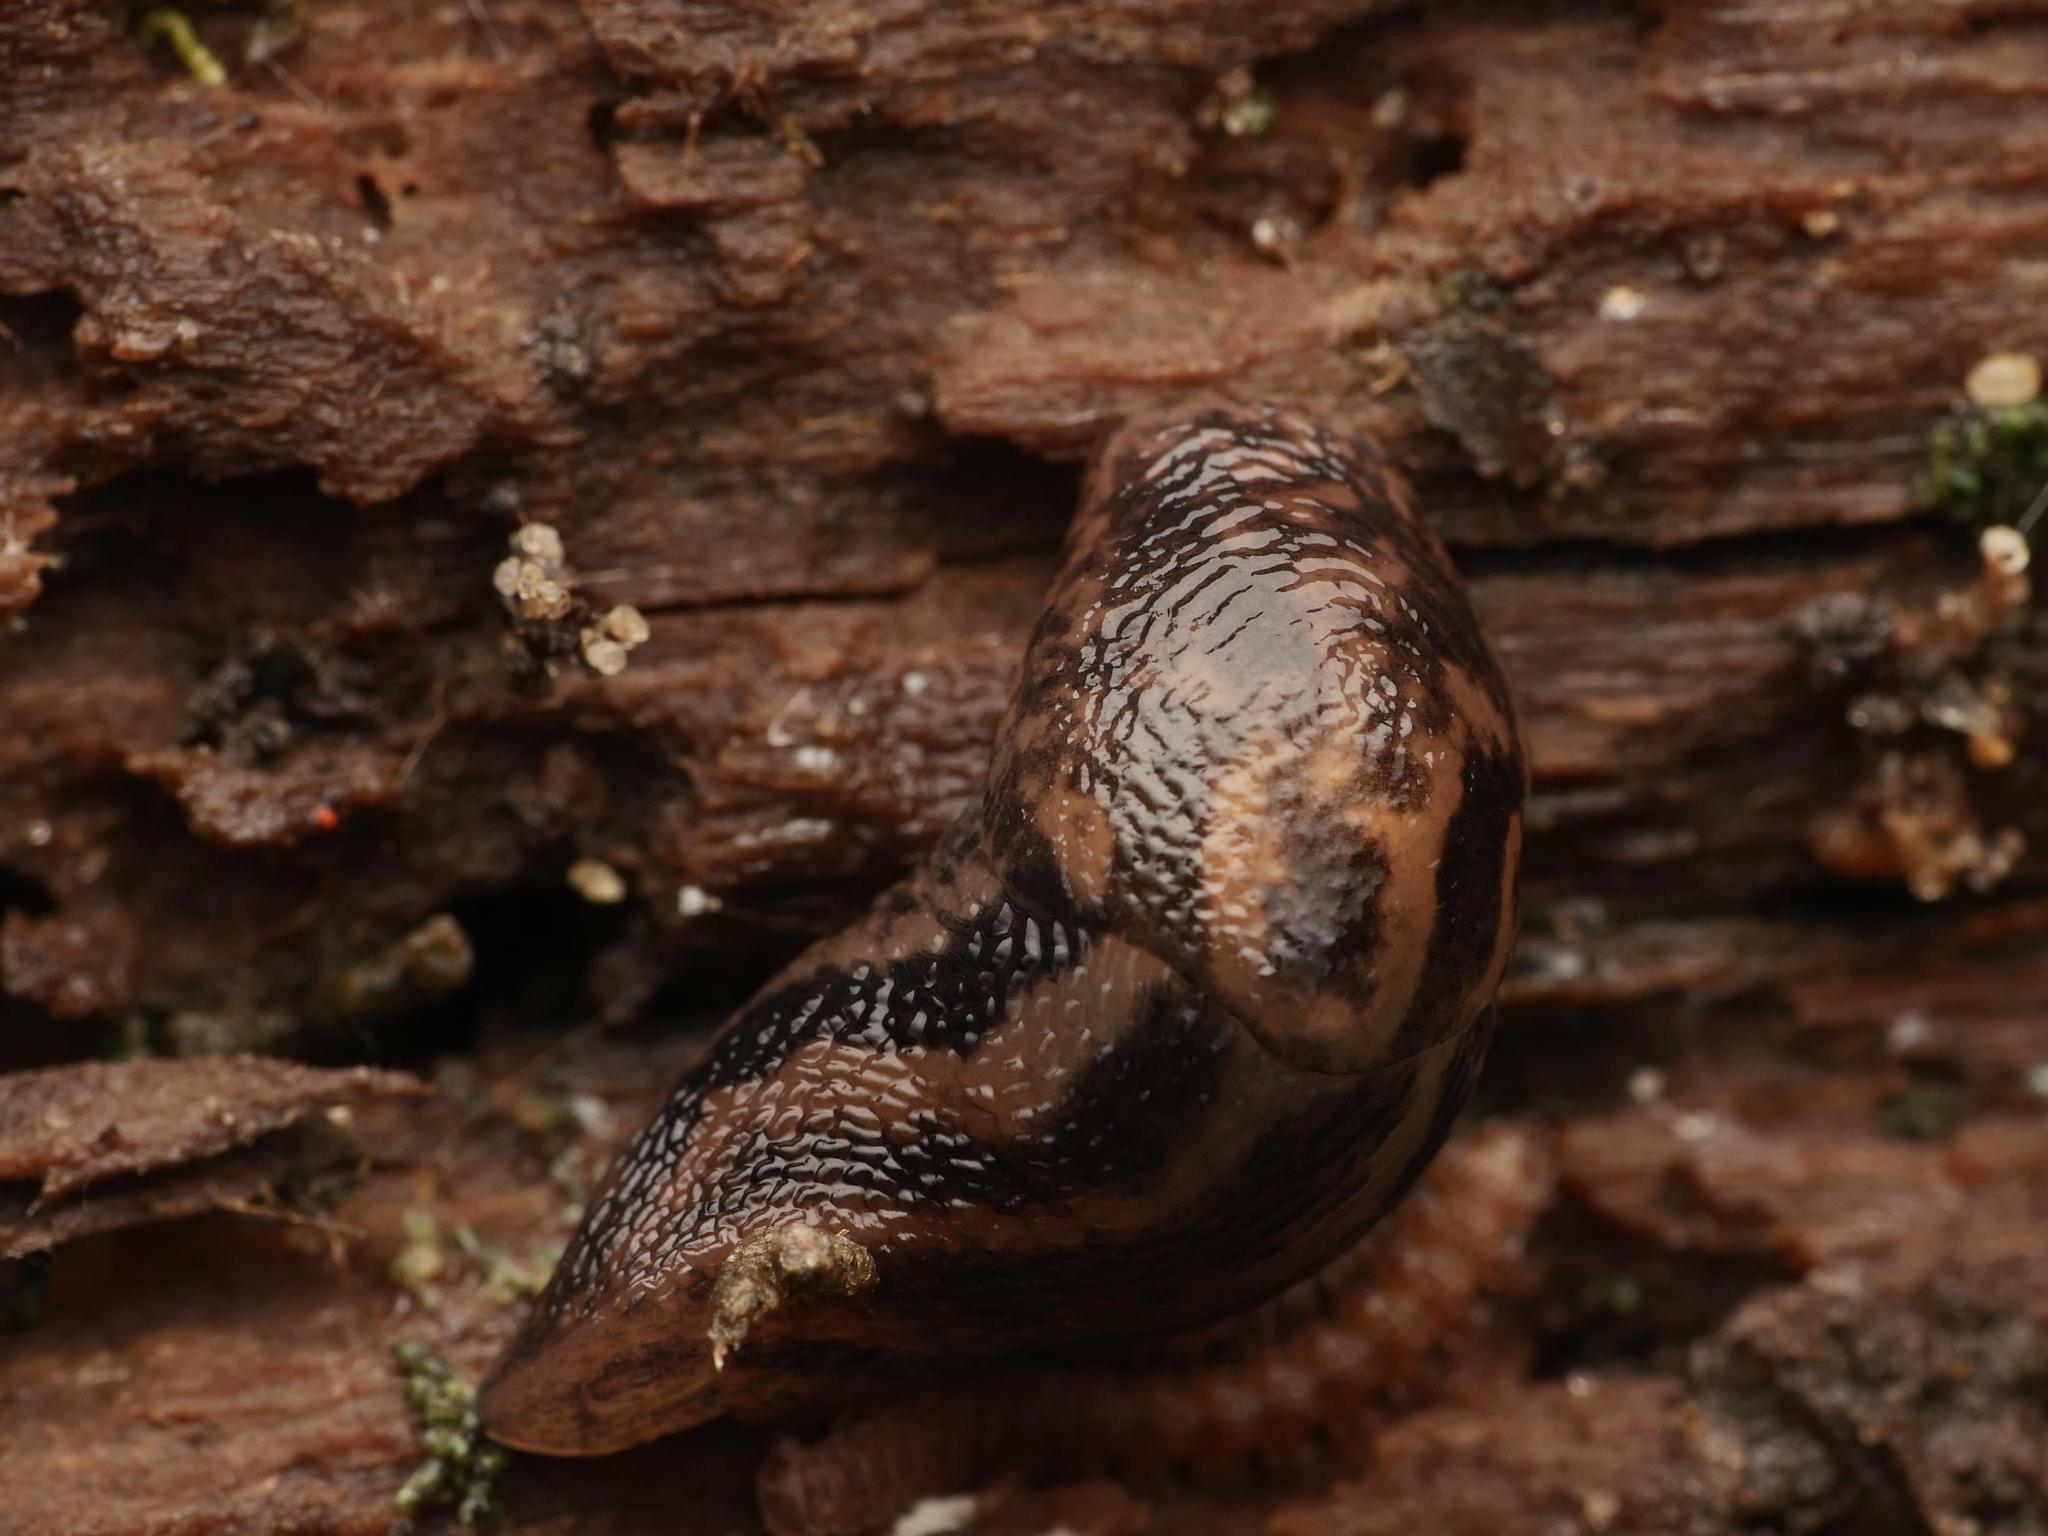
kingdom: Animalia
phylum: Mollusca
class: Gastropoda
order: Stylommatophora
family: Limacidae
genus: Limax
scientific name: Limax maximus
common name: Great grey slug
